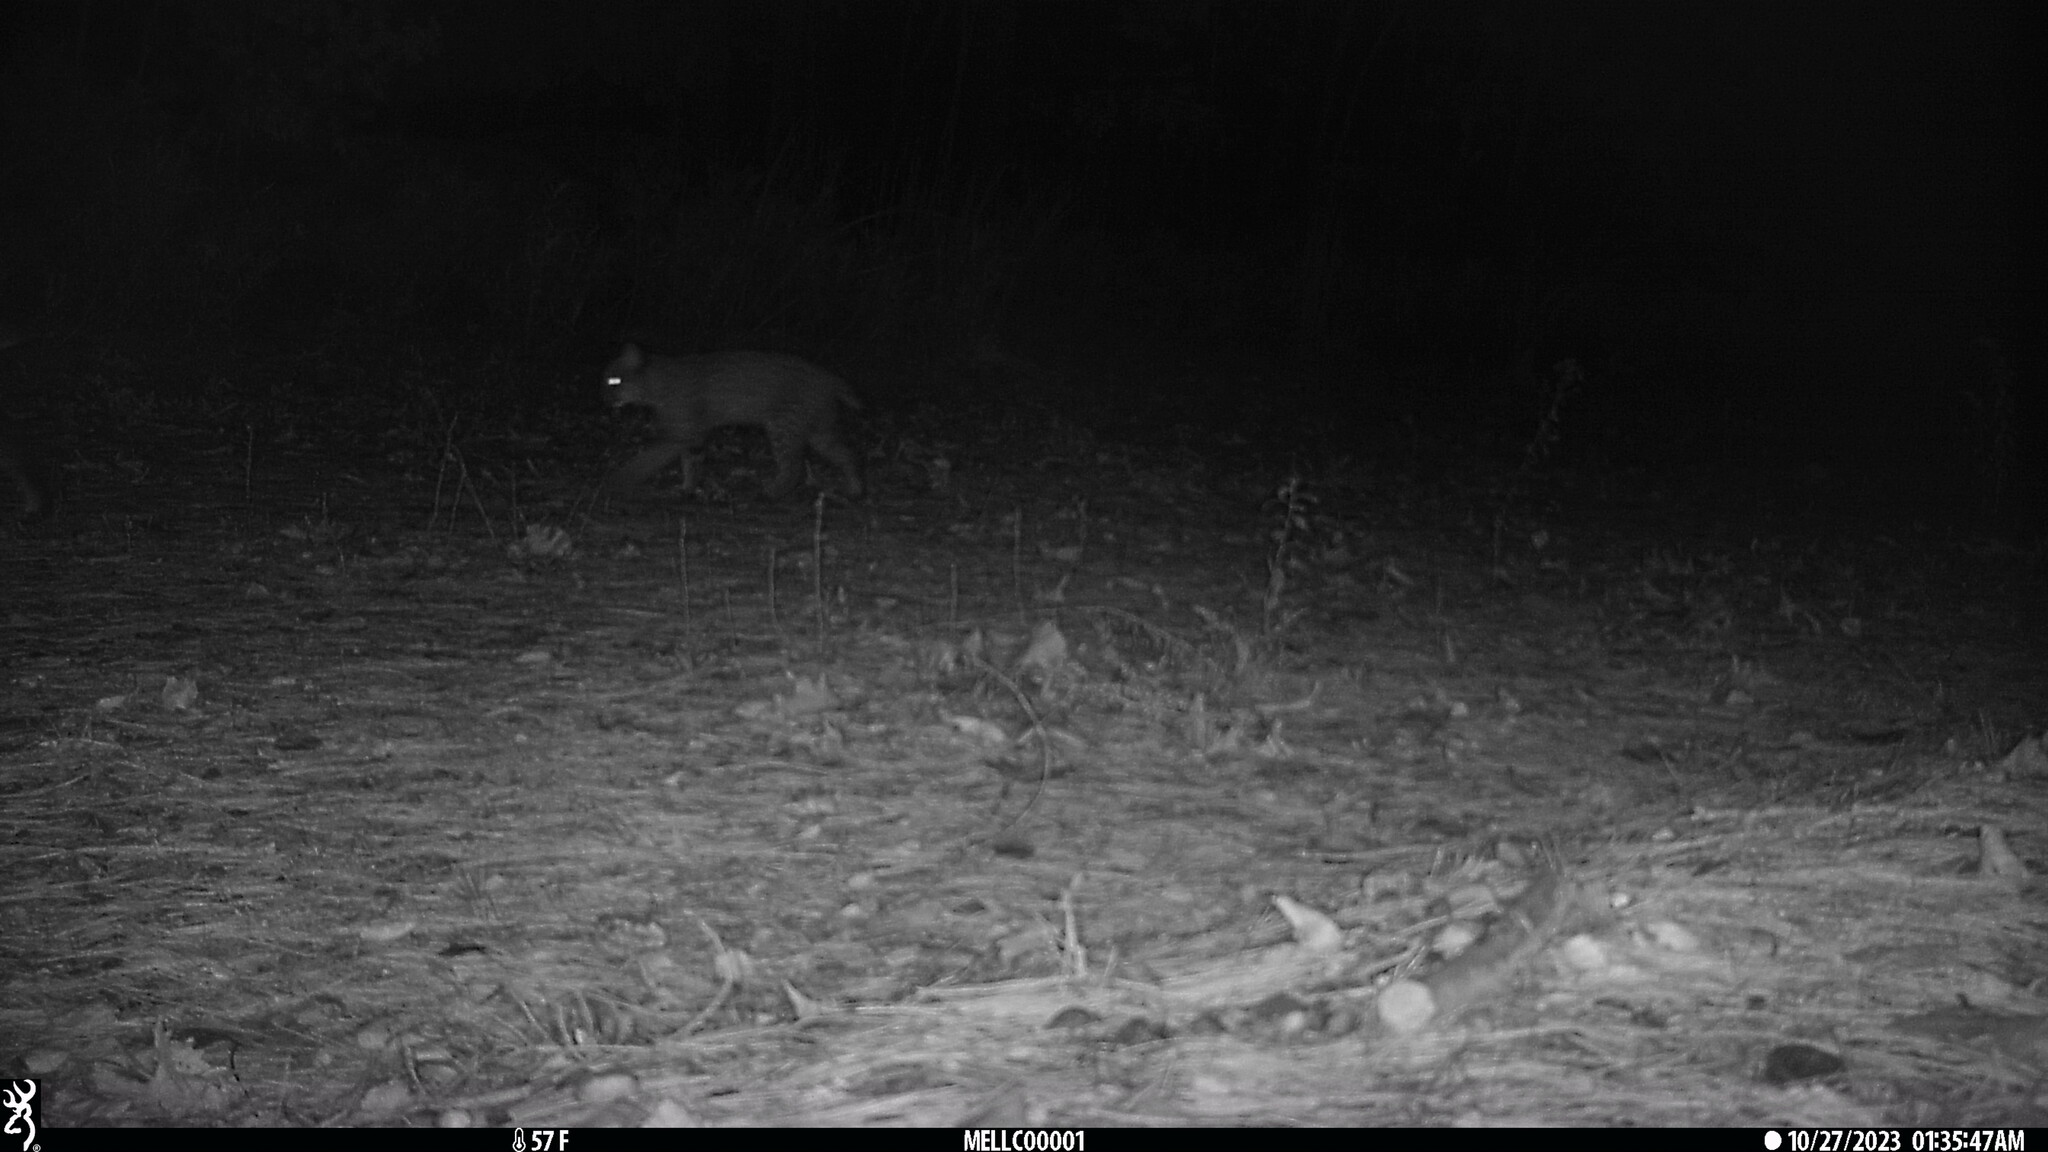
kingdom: Animalia
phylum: Chordata
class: Mammalia
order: Carnivora
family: Felidae
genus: Lynx
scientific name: Lynx rufus
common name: Bobcat
